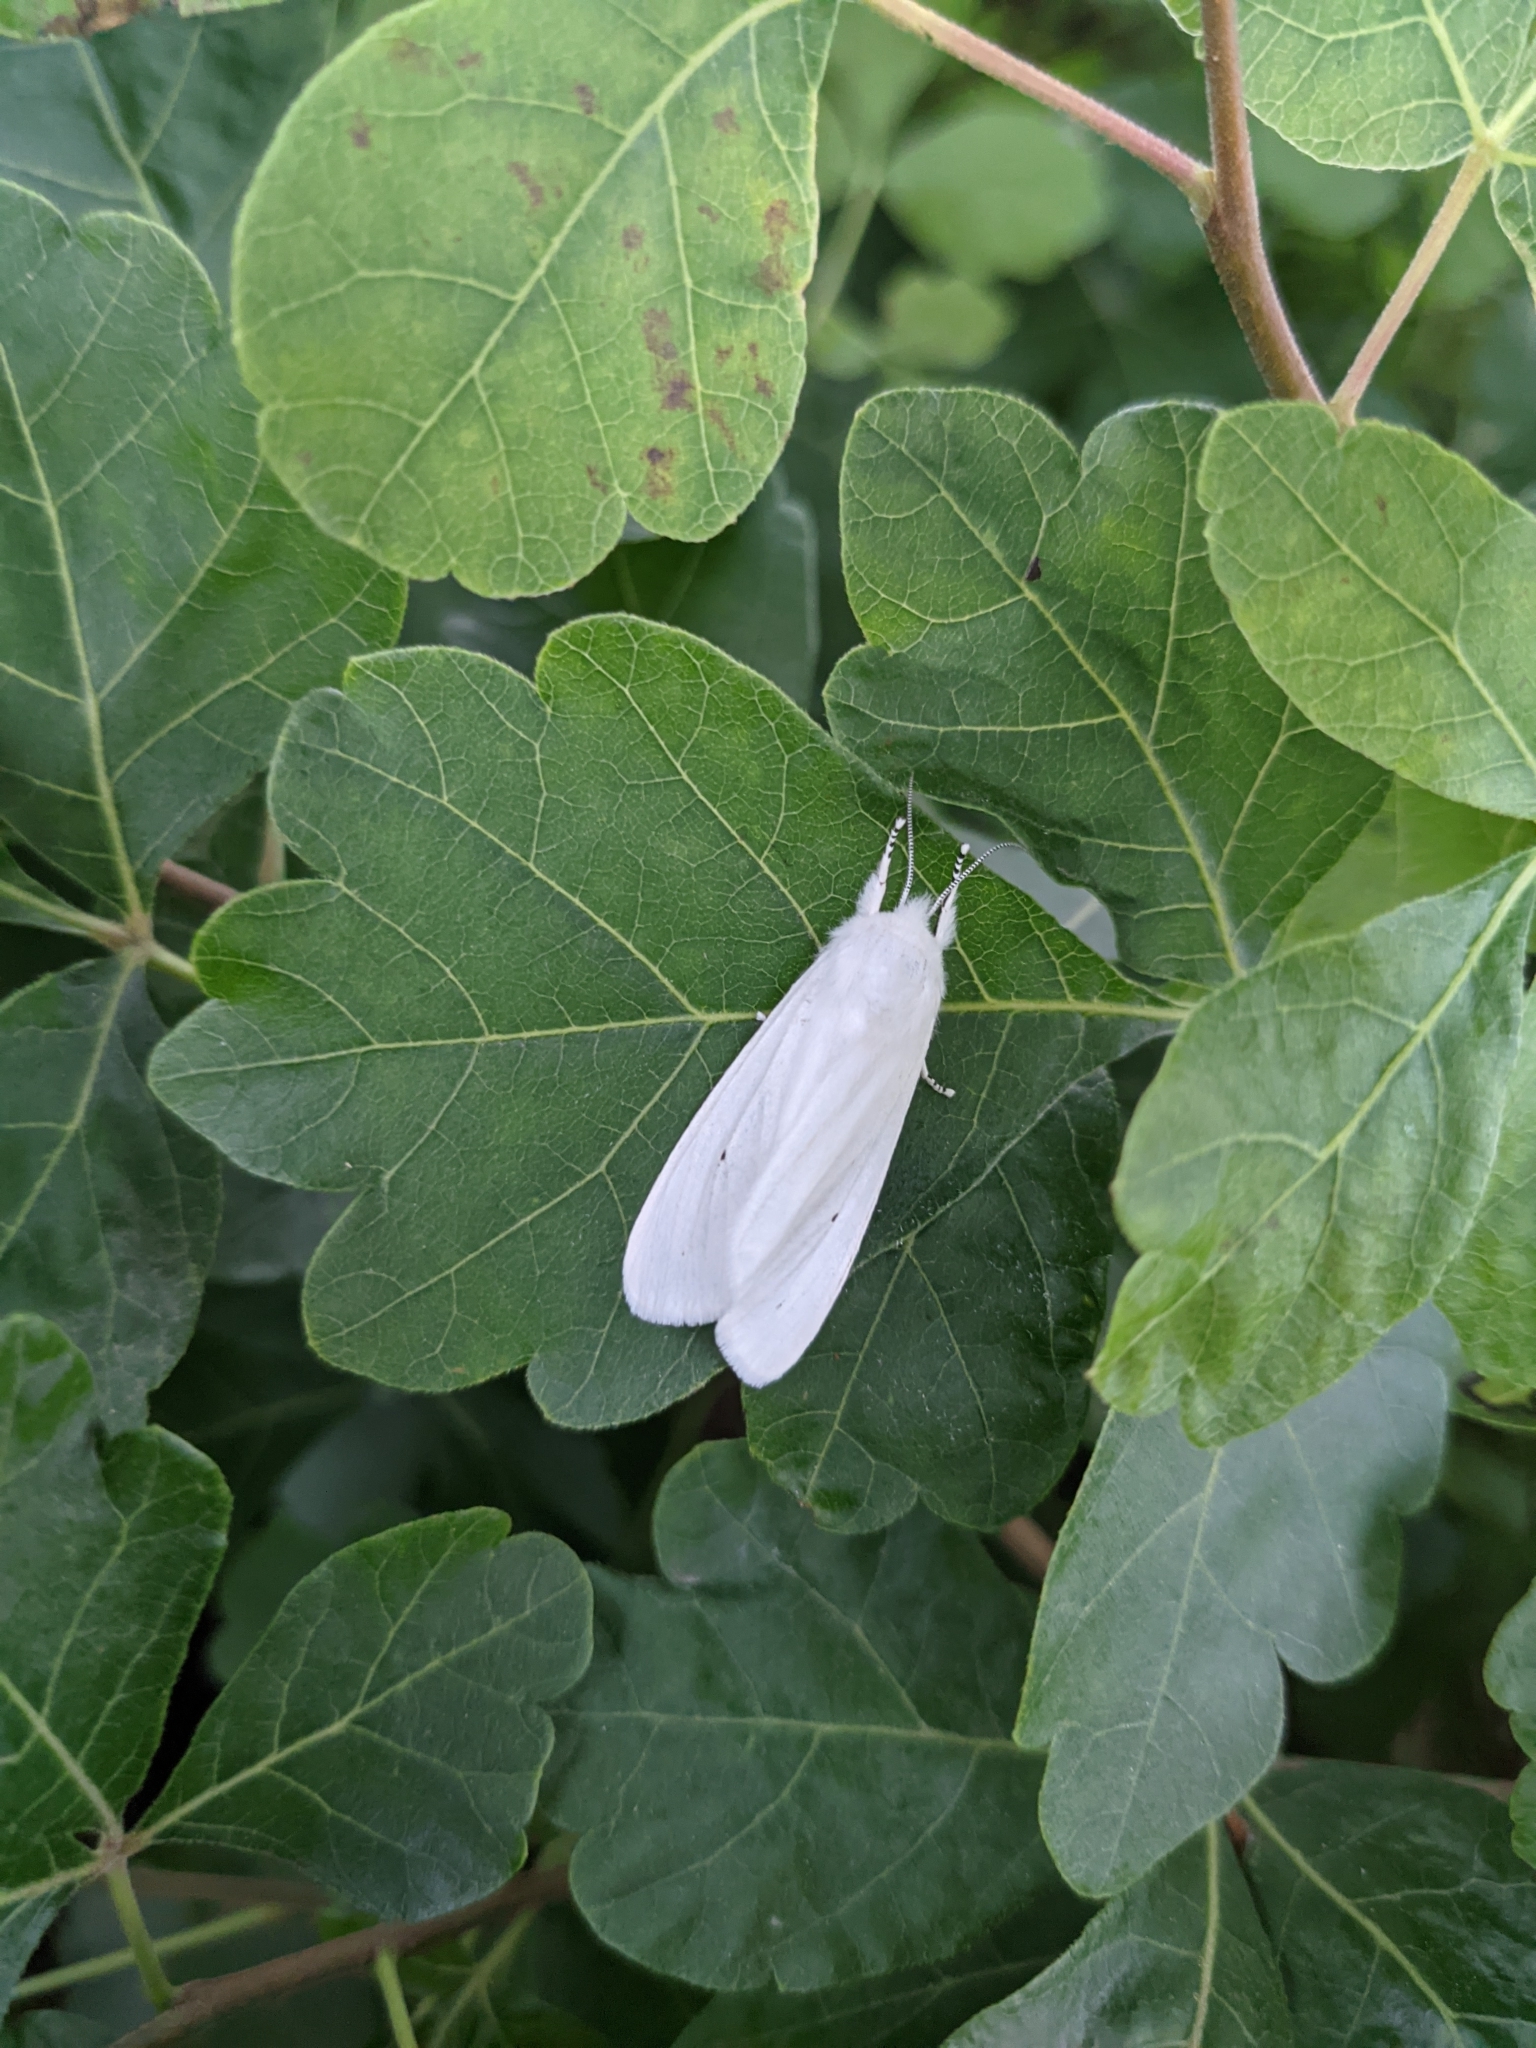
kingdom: Animalia
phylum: Arthropoda
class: Insecta
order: Lepidoptera
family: Erebidae
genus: Spilosoma
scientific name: Spilosoma virginica
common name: Virginia tiger moth
